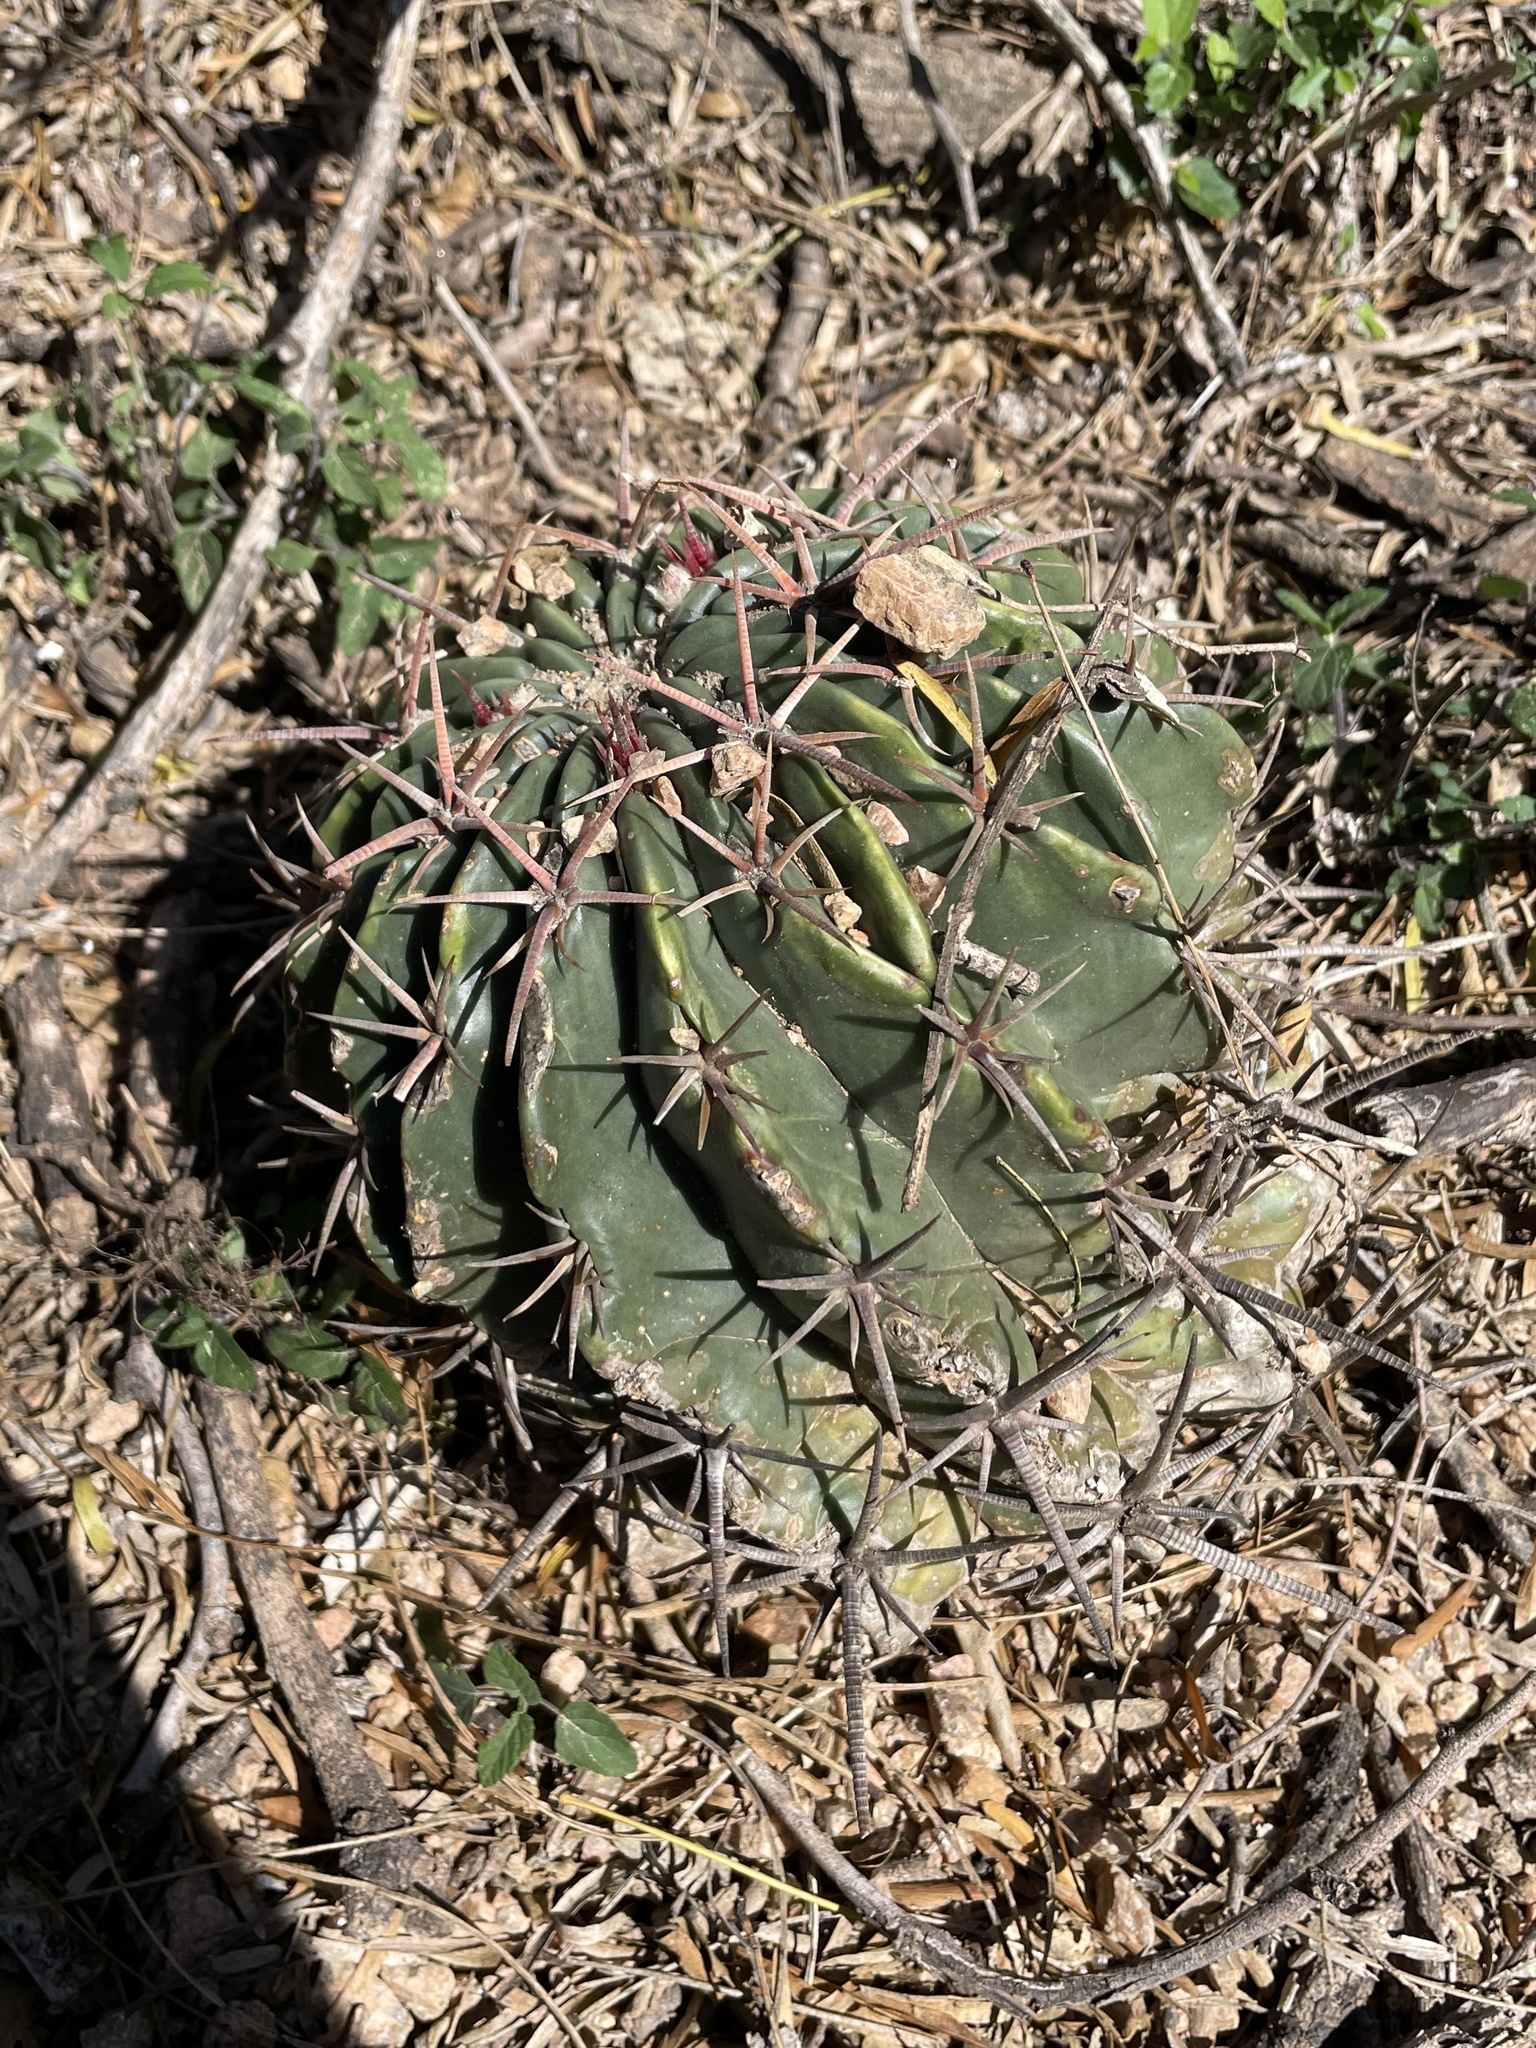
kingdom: Plantae
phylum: Tracheophyta
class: Magnoliopsida
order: Caryophyllales
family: Cactaceae
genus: Echinocactus
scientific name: Echinocactus texensis
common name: Devil's pincushion
